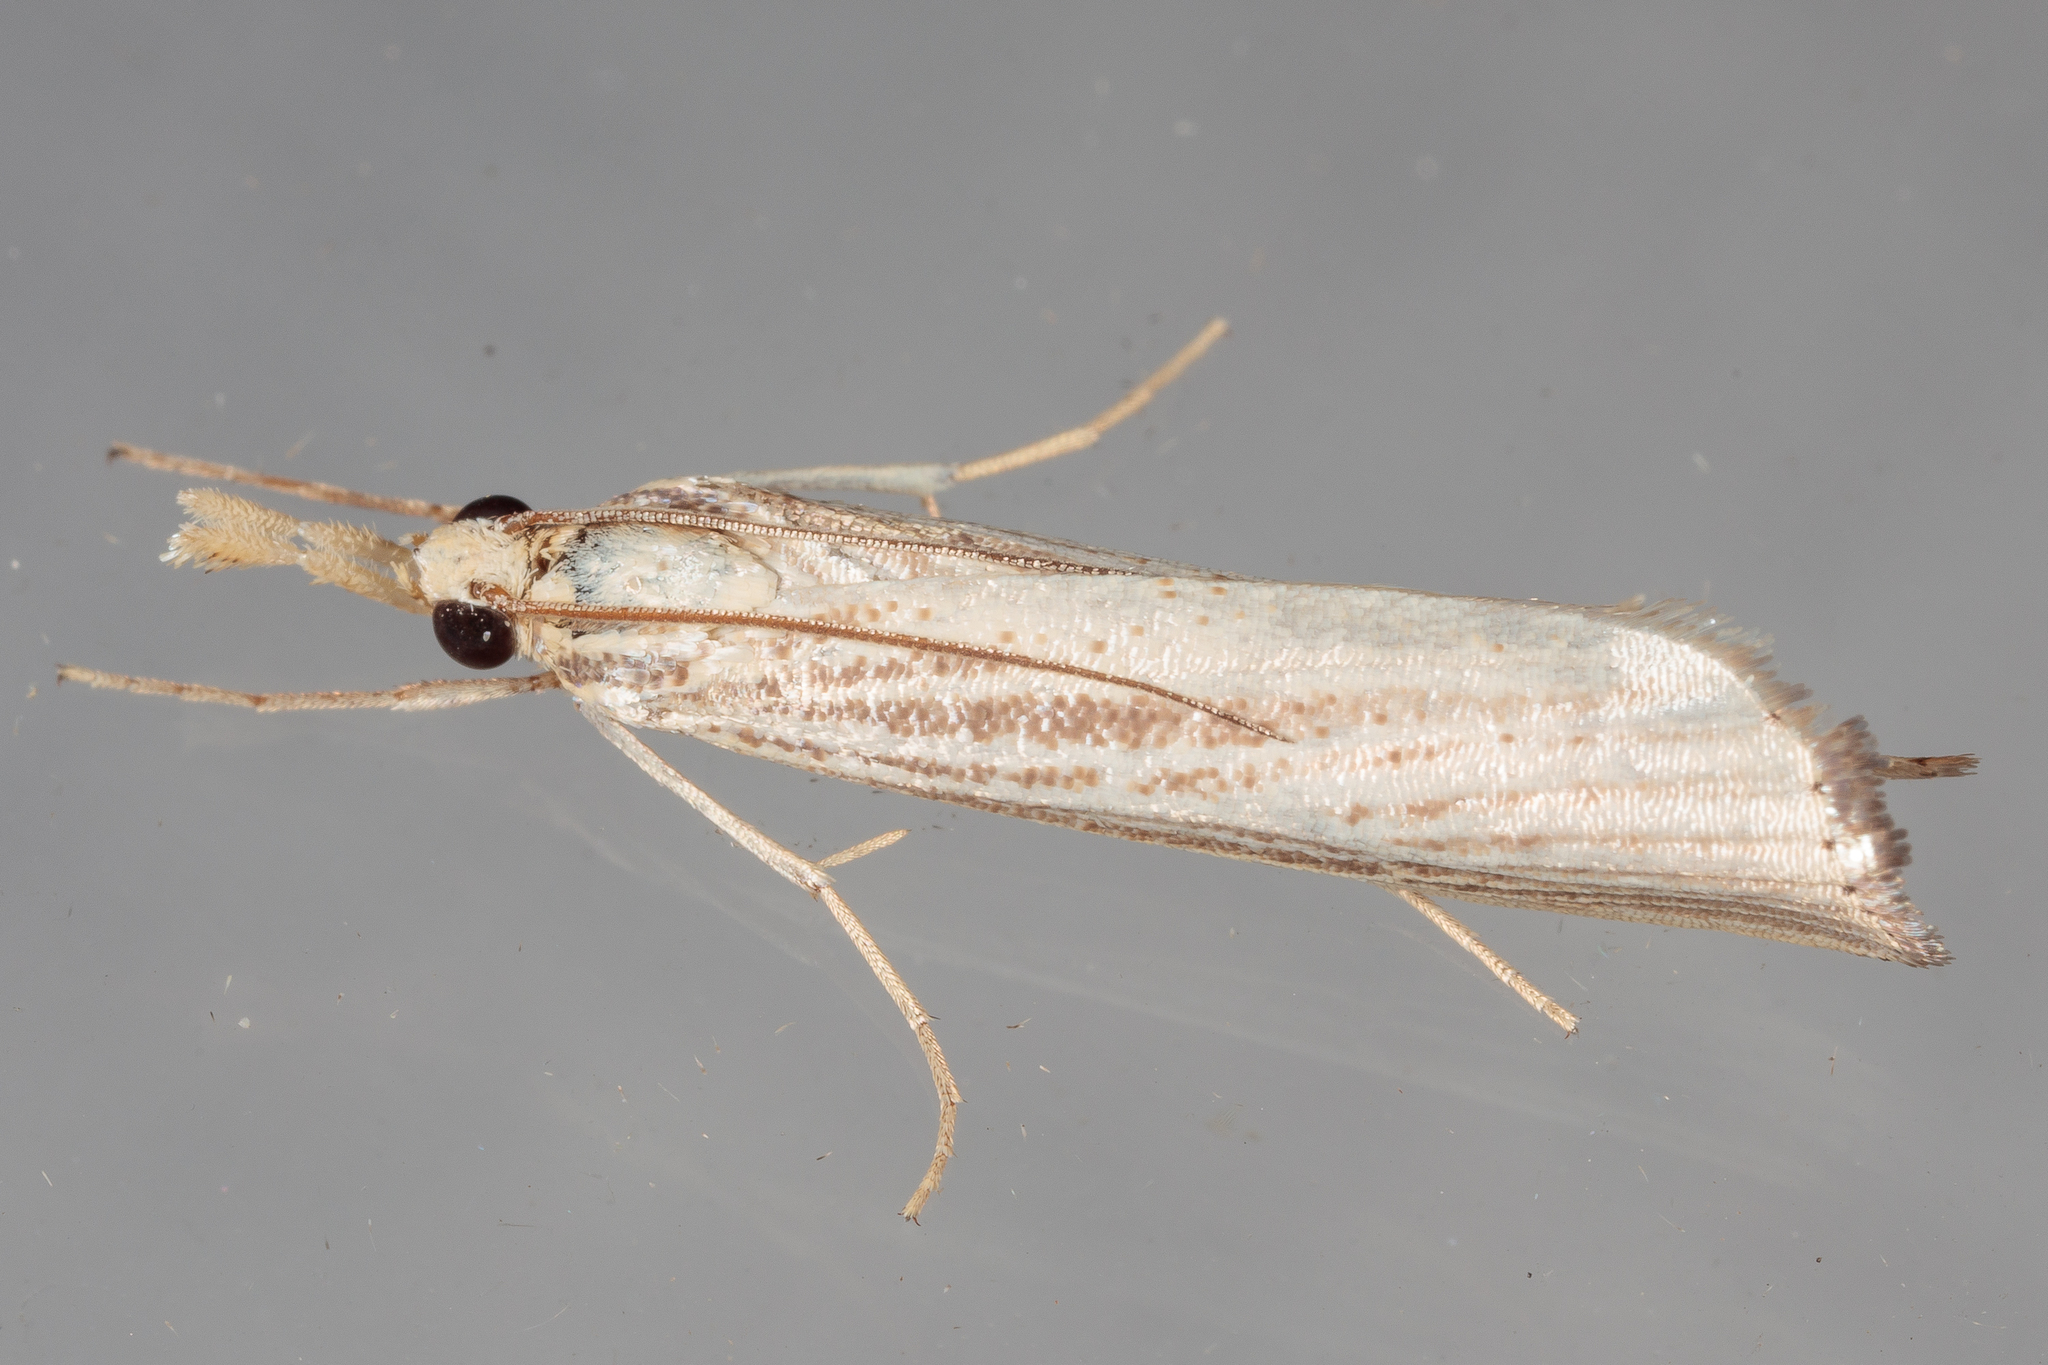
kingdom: Animalia
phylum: Arthropoda
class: Insecta
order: Lepidoptera
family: Crambidae
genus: Agriphila
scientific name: Agriphila vulgivagellus
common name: Vagabond crambus moth
